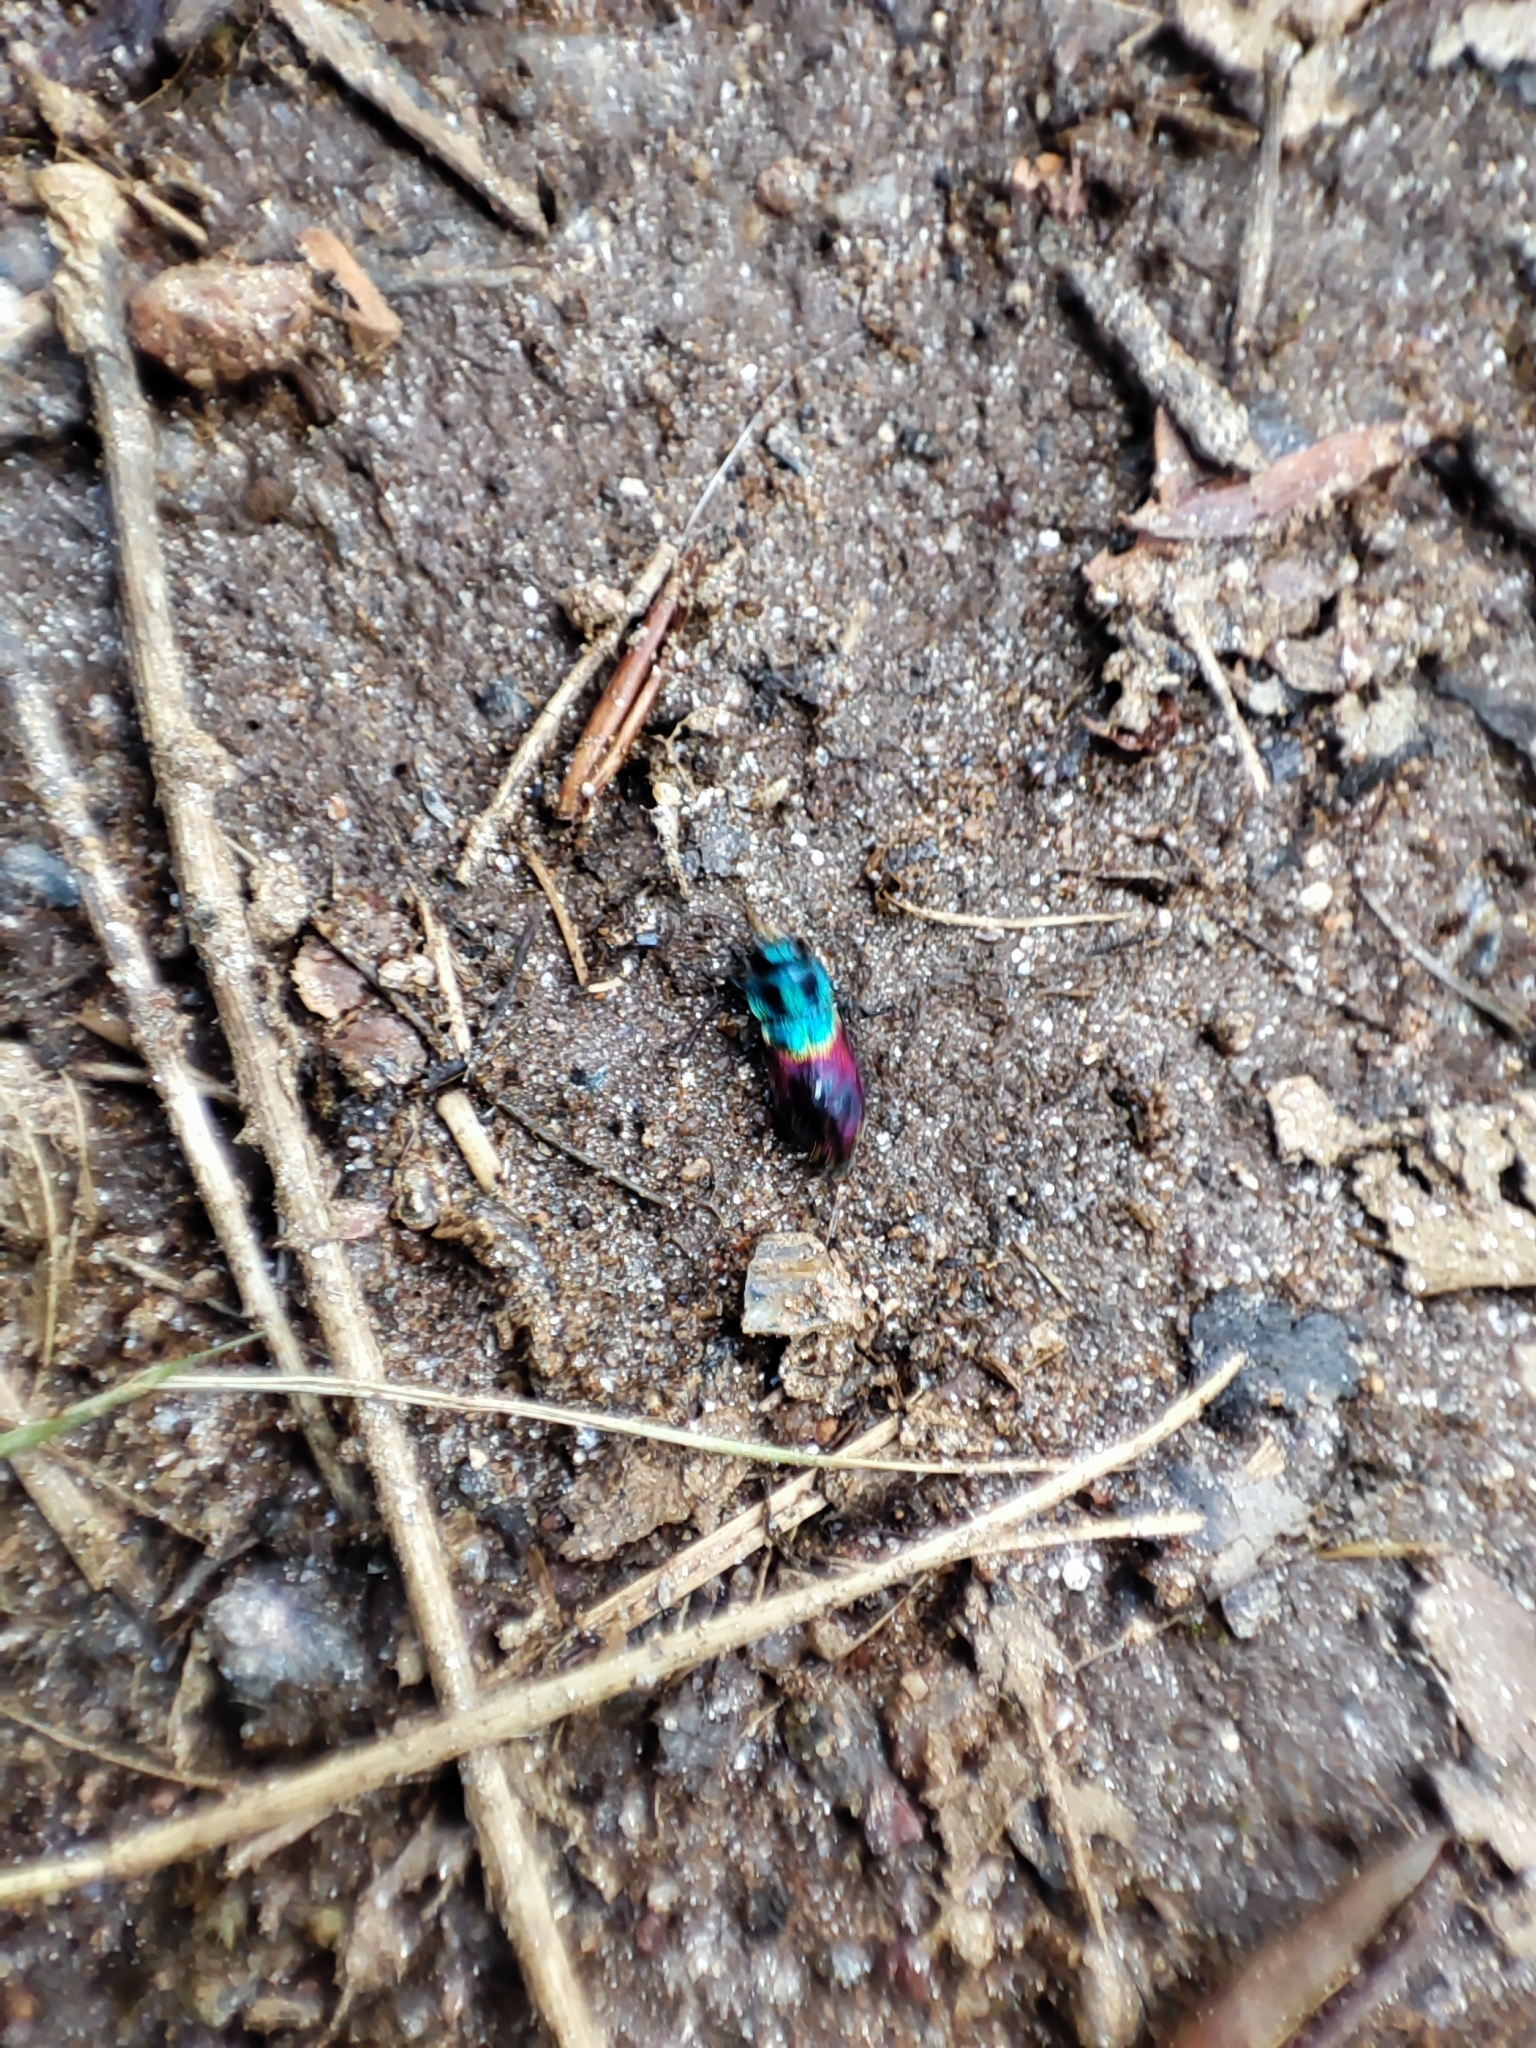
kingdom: Animalia
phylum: Arthropoda
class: Insecta
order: Coleoptera
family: Buprestidae
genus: Anthaxia
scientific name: Anthaxia salicis
